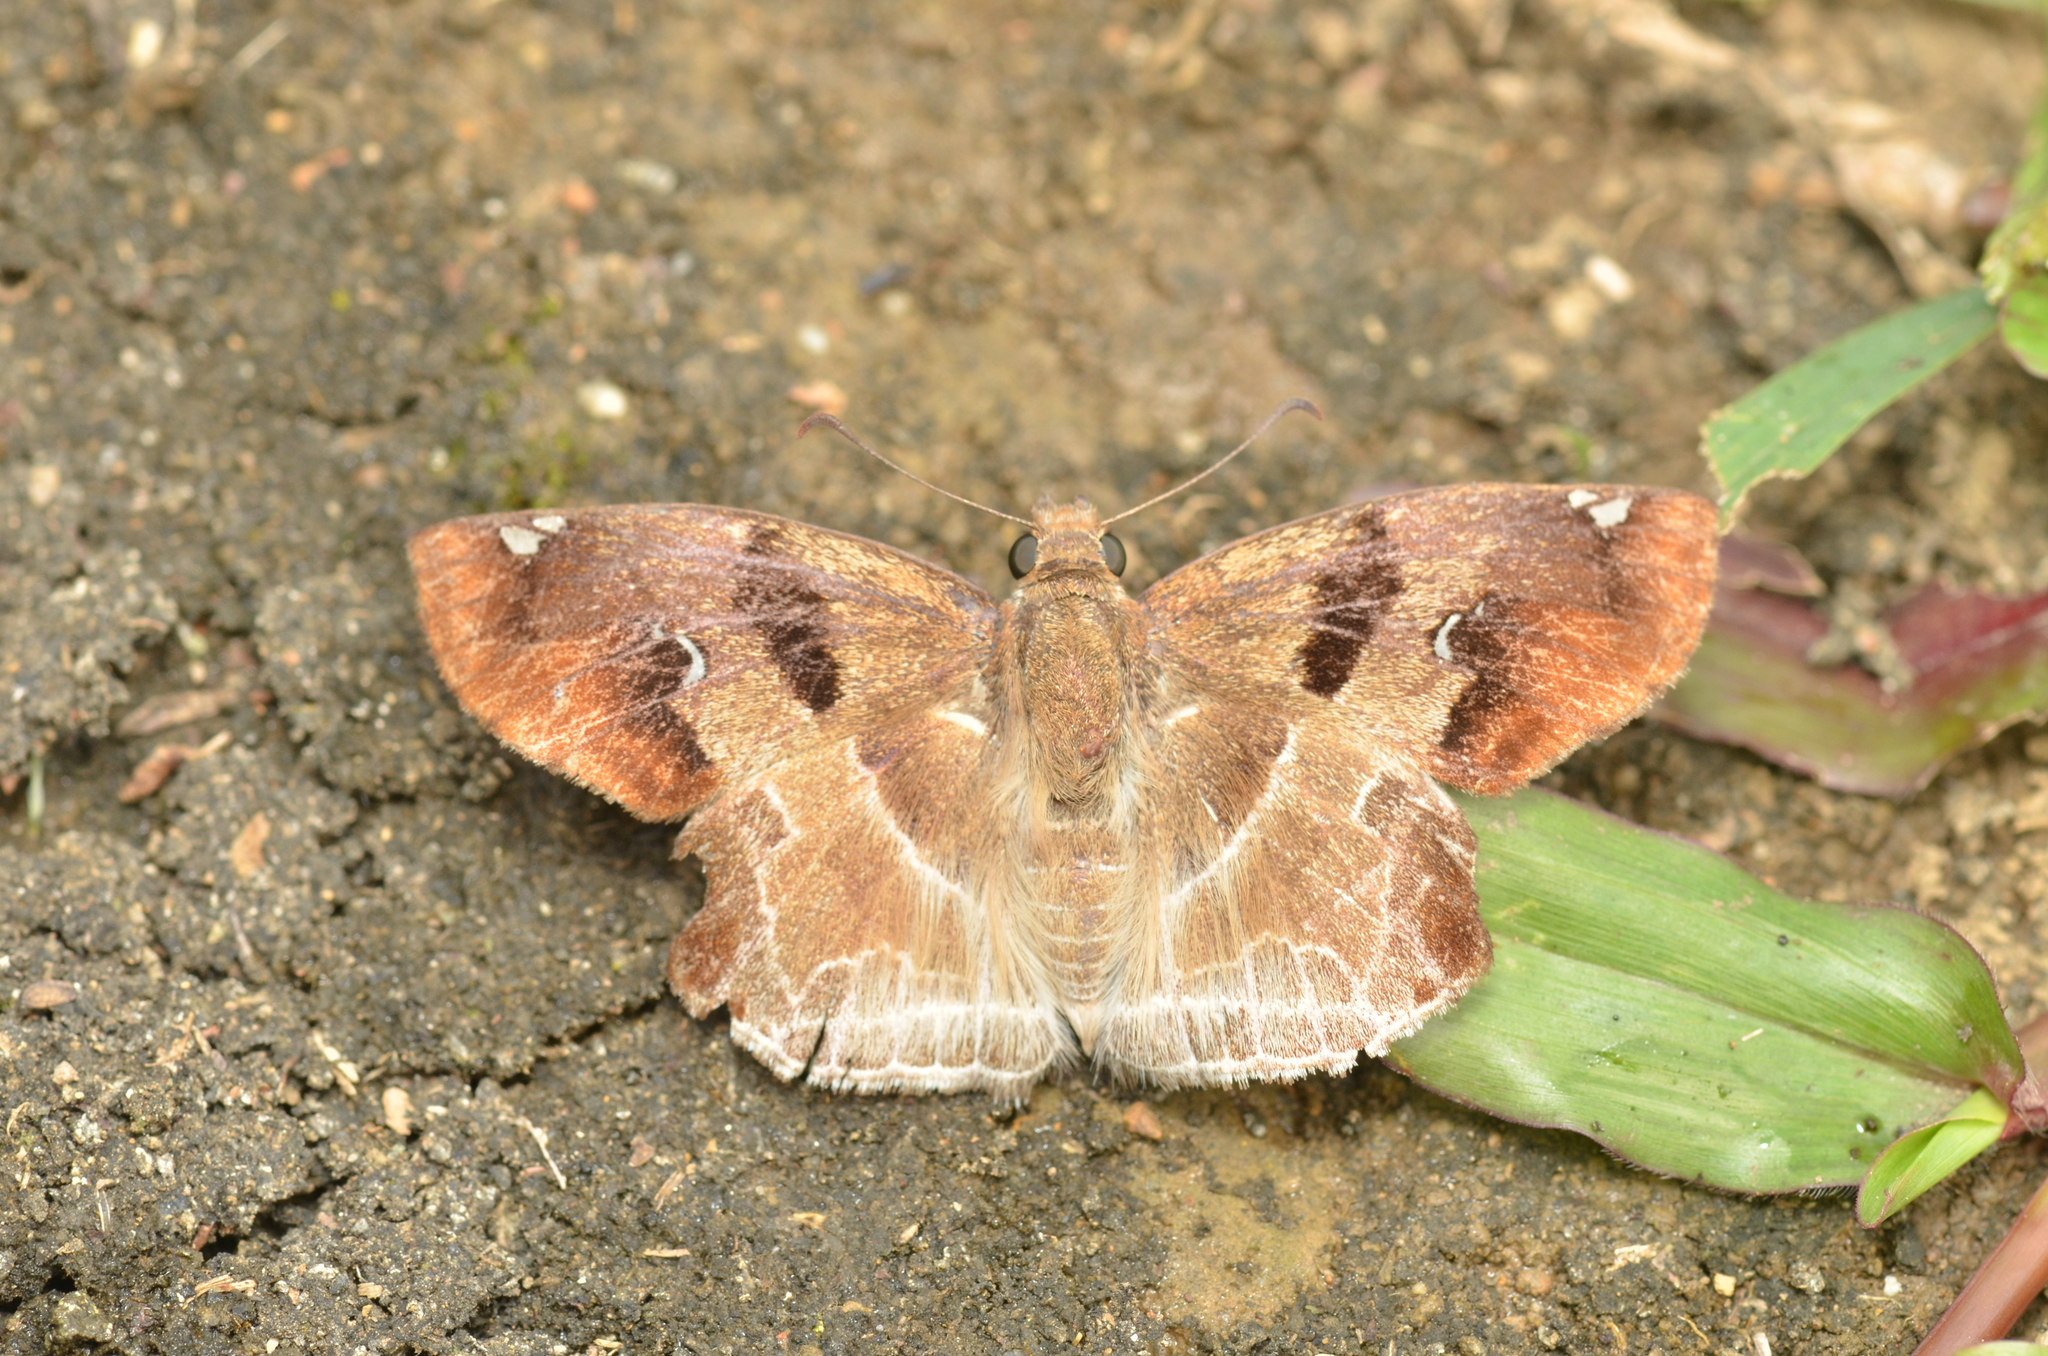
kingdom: Animalia
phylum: Arthropoda
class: Insecta
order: Lepidoptera
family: Hesperiidae
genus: Odontoptilum
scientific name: Odontoptilum angulata
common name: Chestnut banded angle
